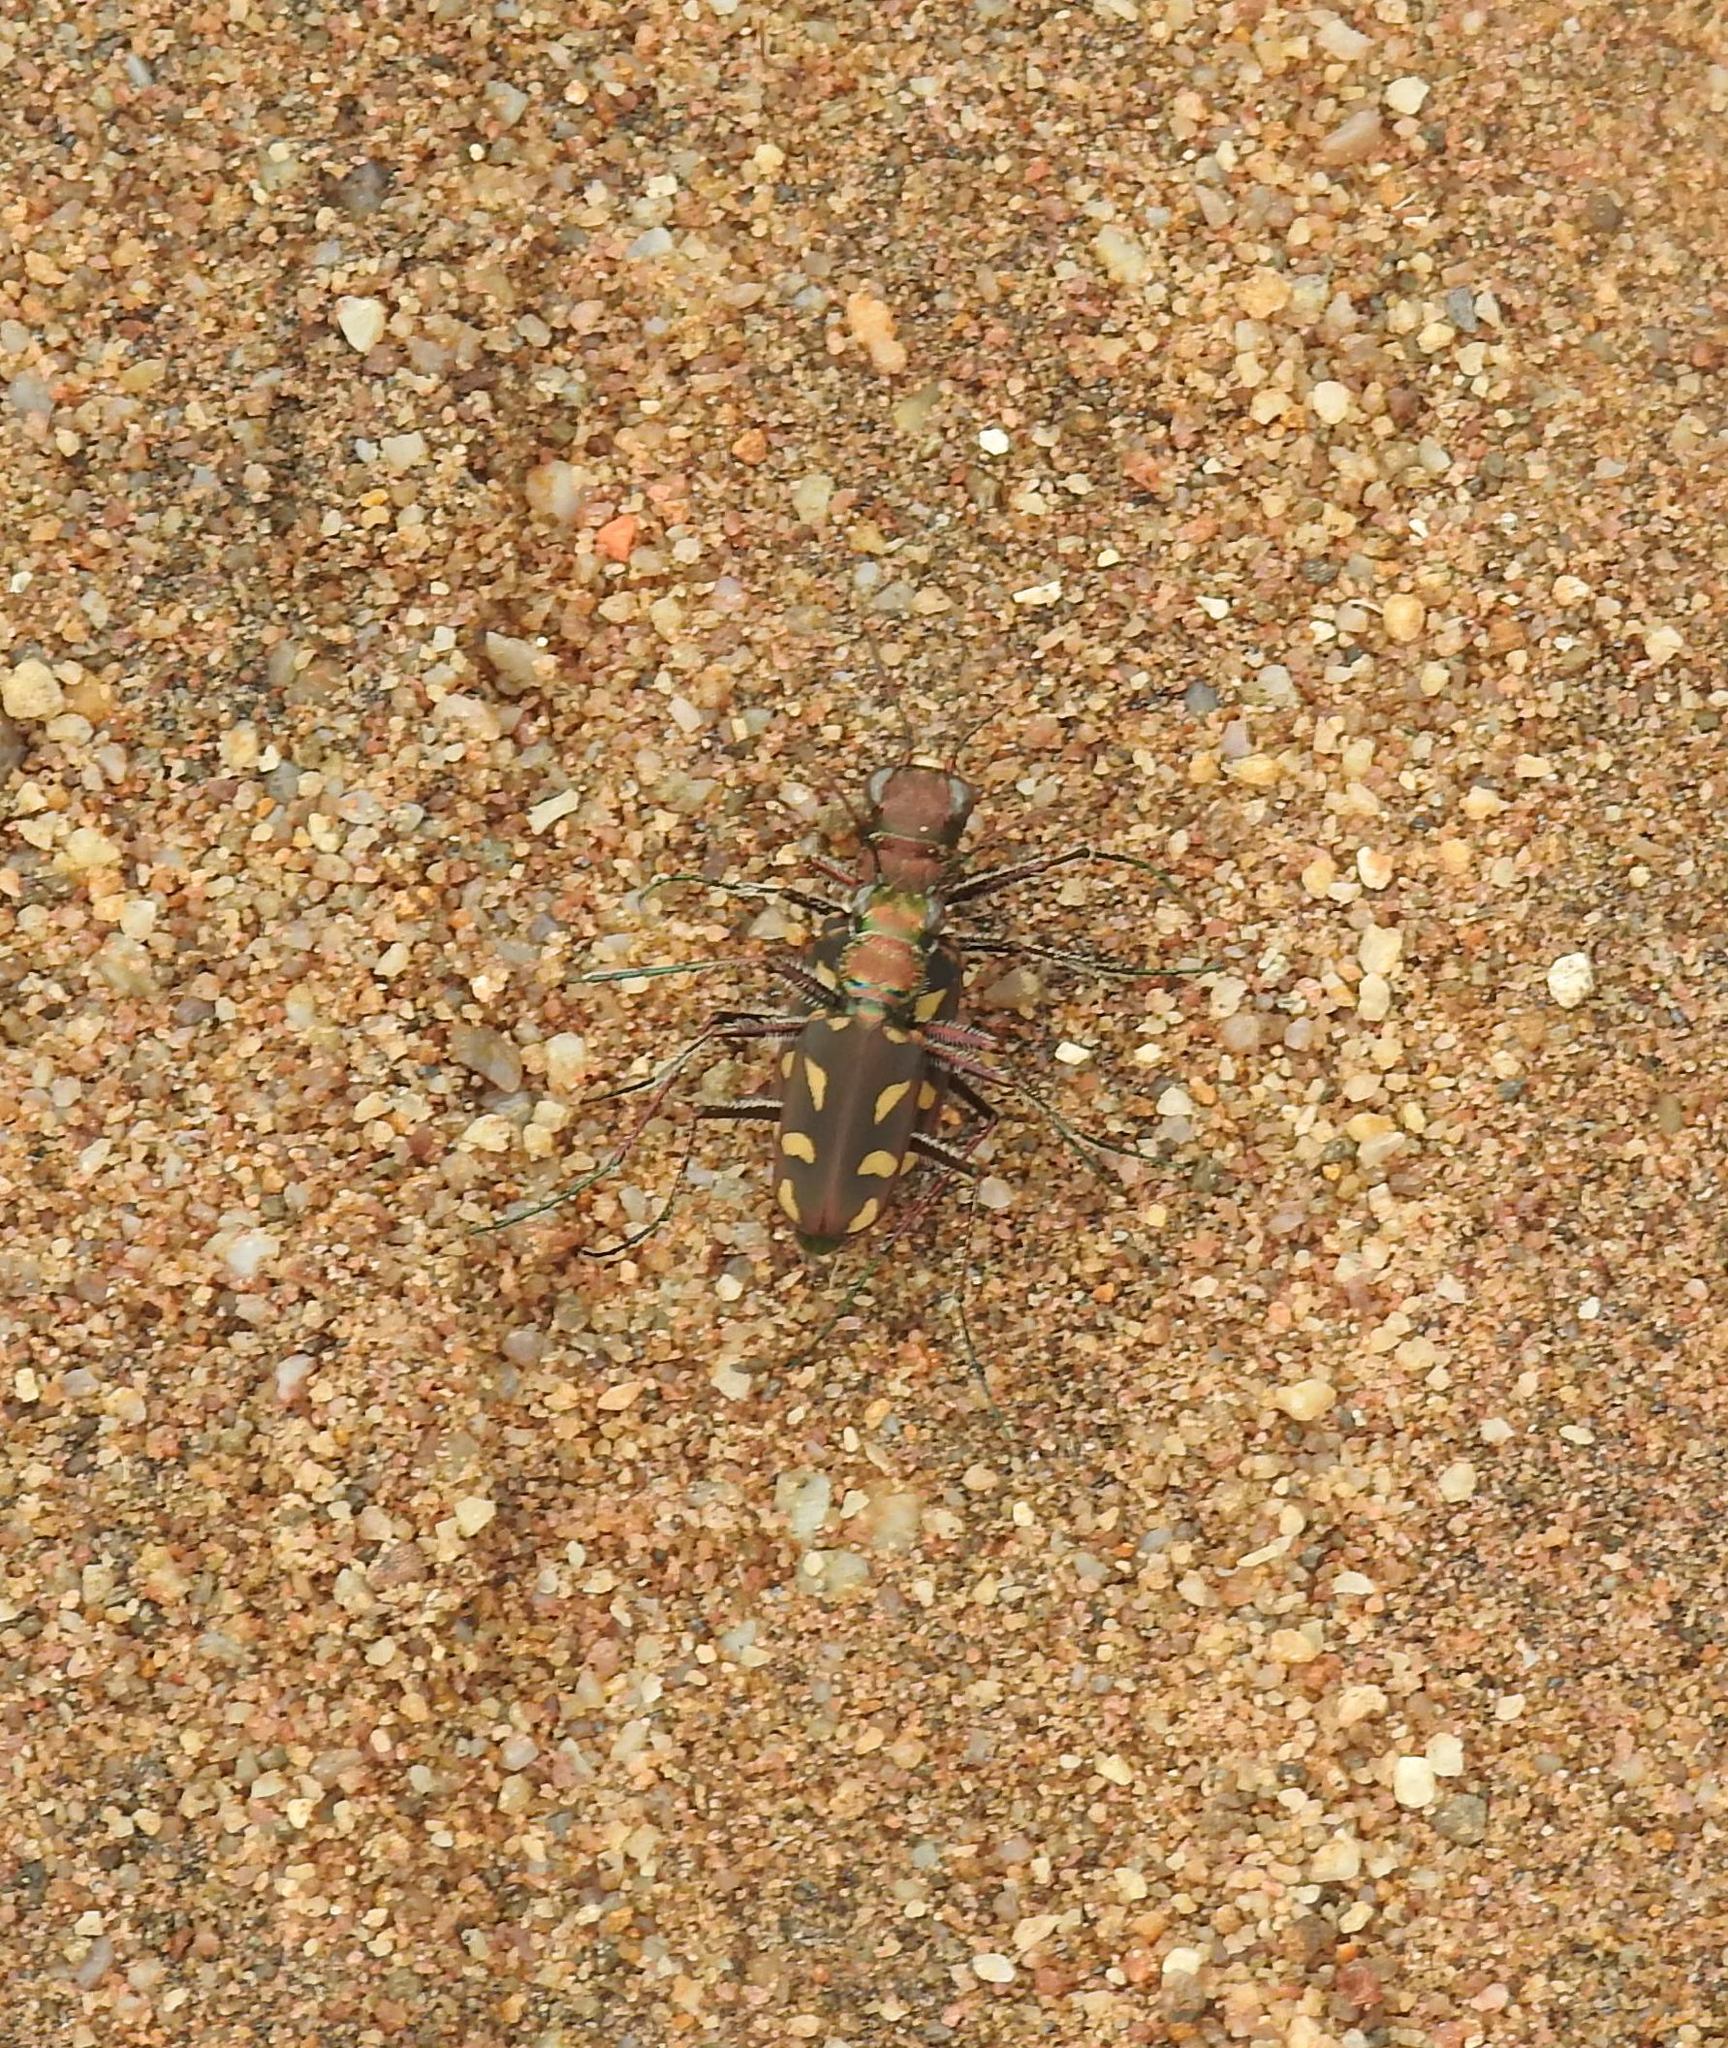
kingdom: Animalia
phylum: Arthropoda
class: Insecta
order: Coleoptera
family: Carabidae
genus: Cicindela
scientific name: Cicindela calligramma
